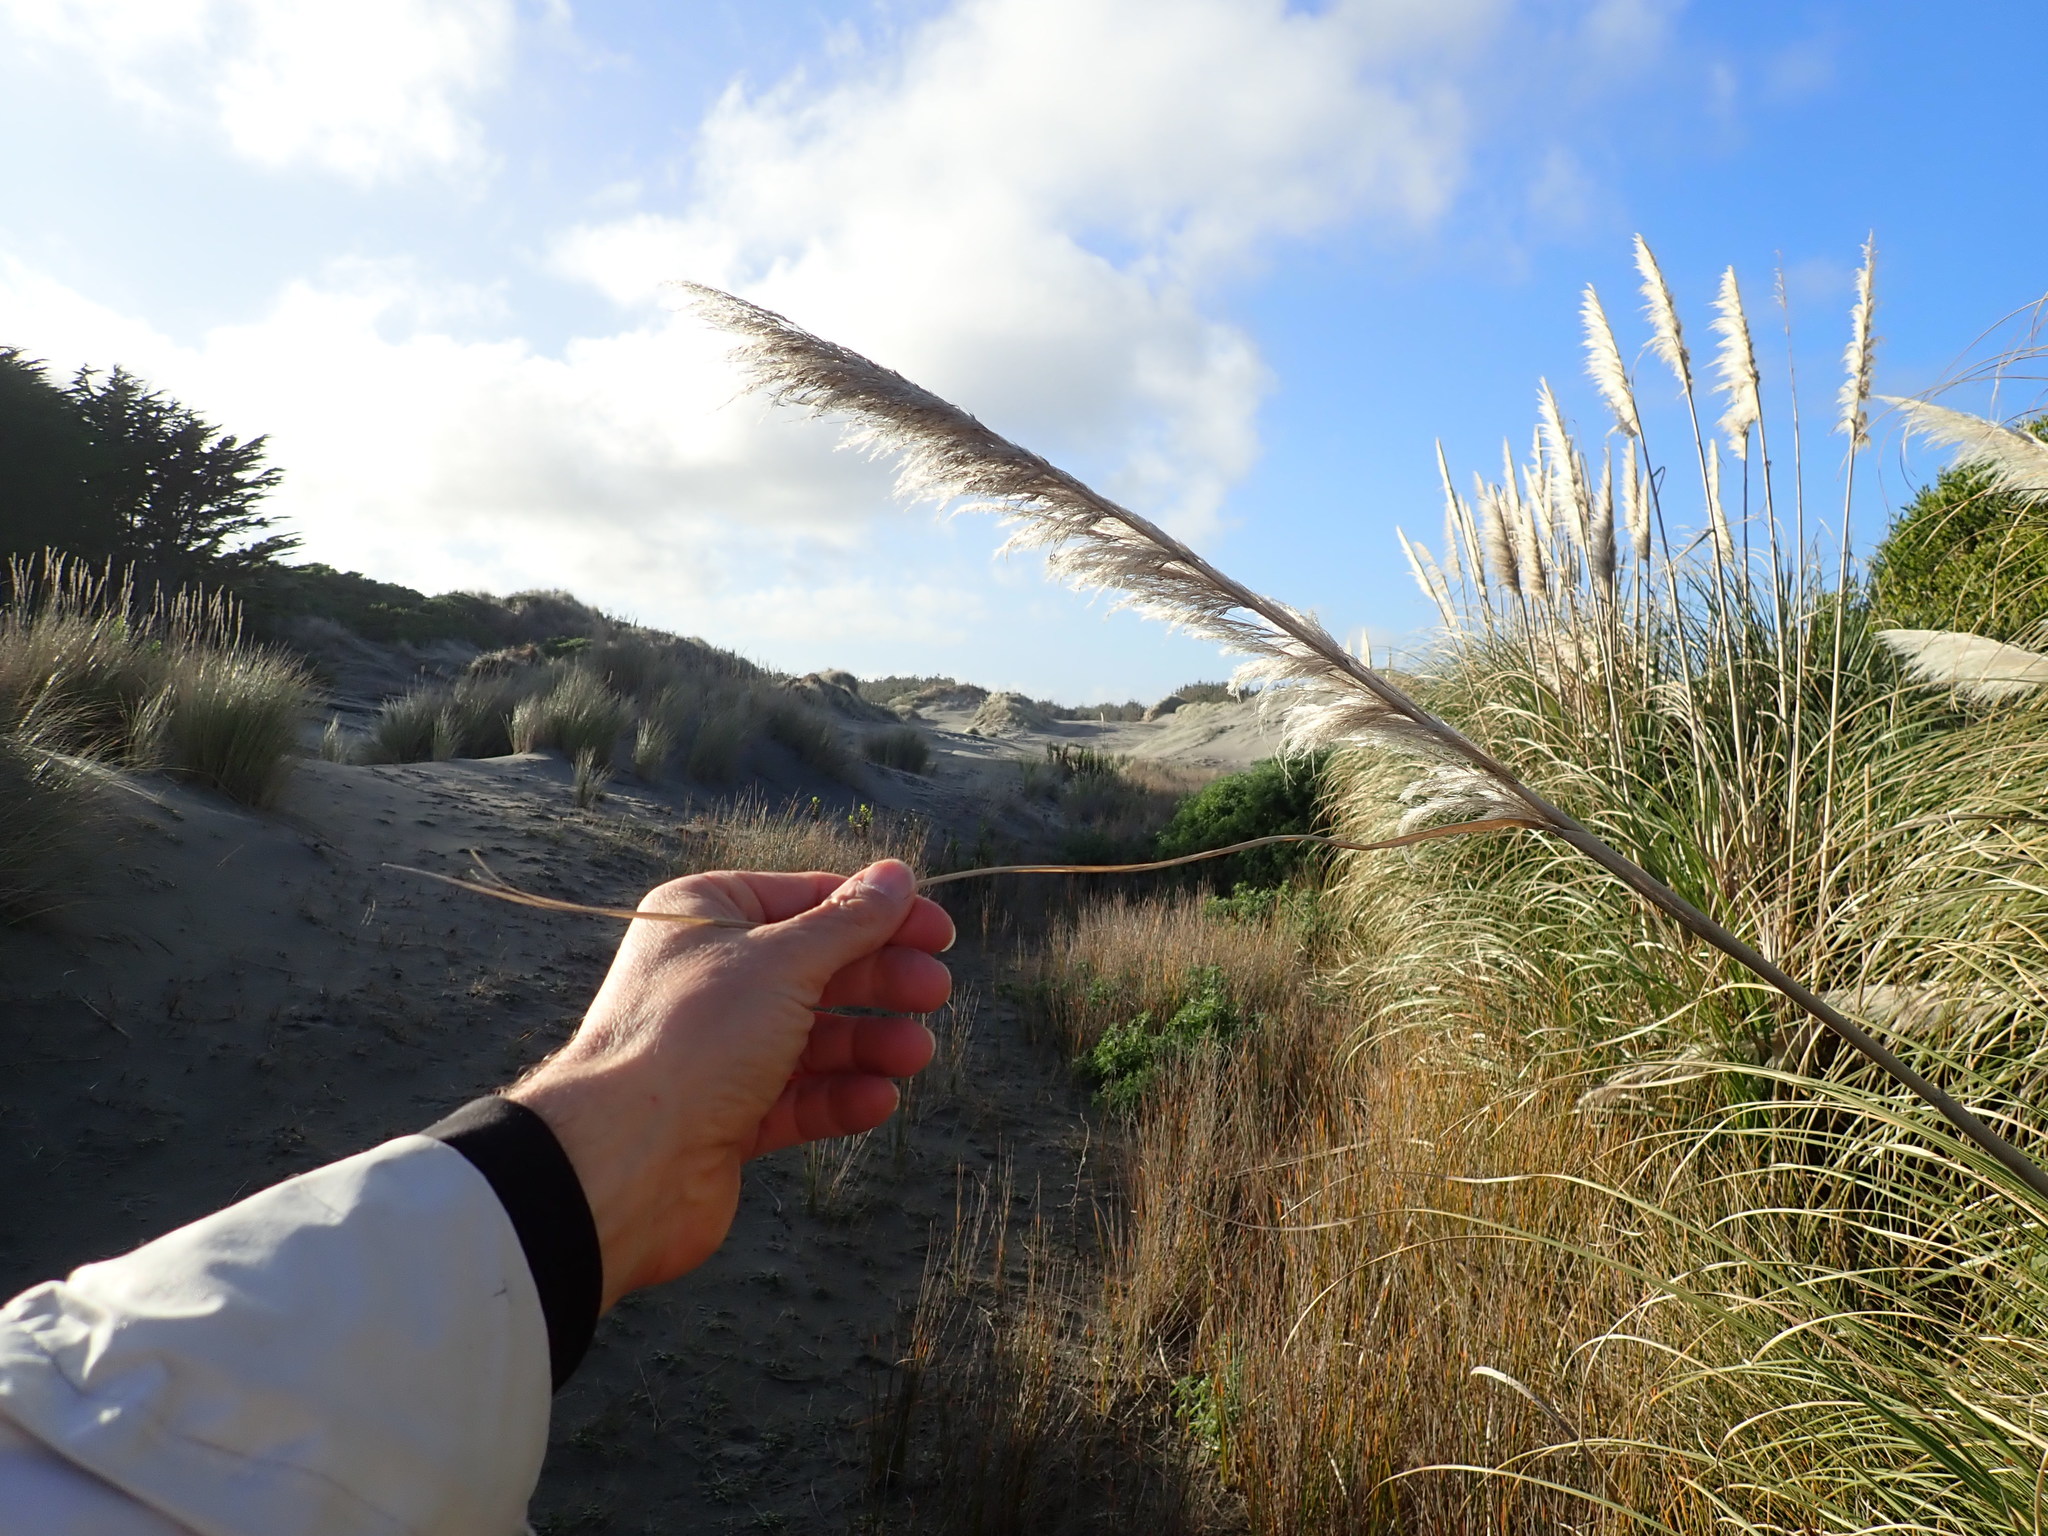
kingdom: Plantae
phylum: Tracheophyta
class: Liliopsida
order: Poales
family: Poaceae
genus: Cortaderia
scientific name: Cortaderia selloana
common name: Uruguayan pampas grass
